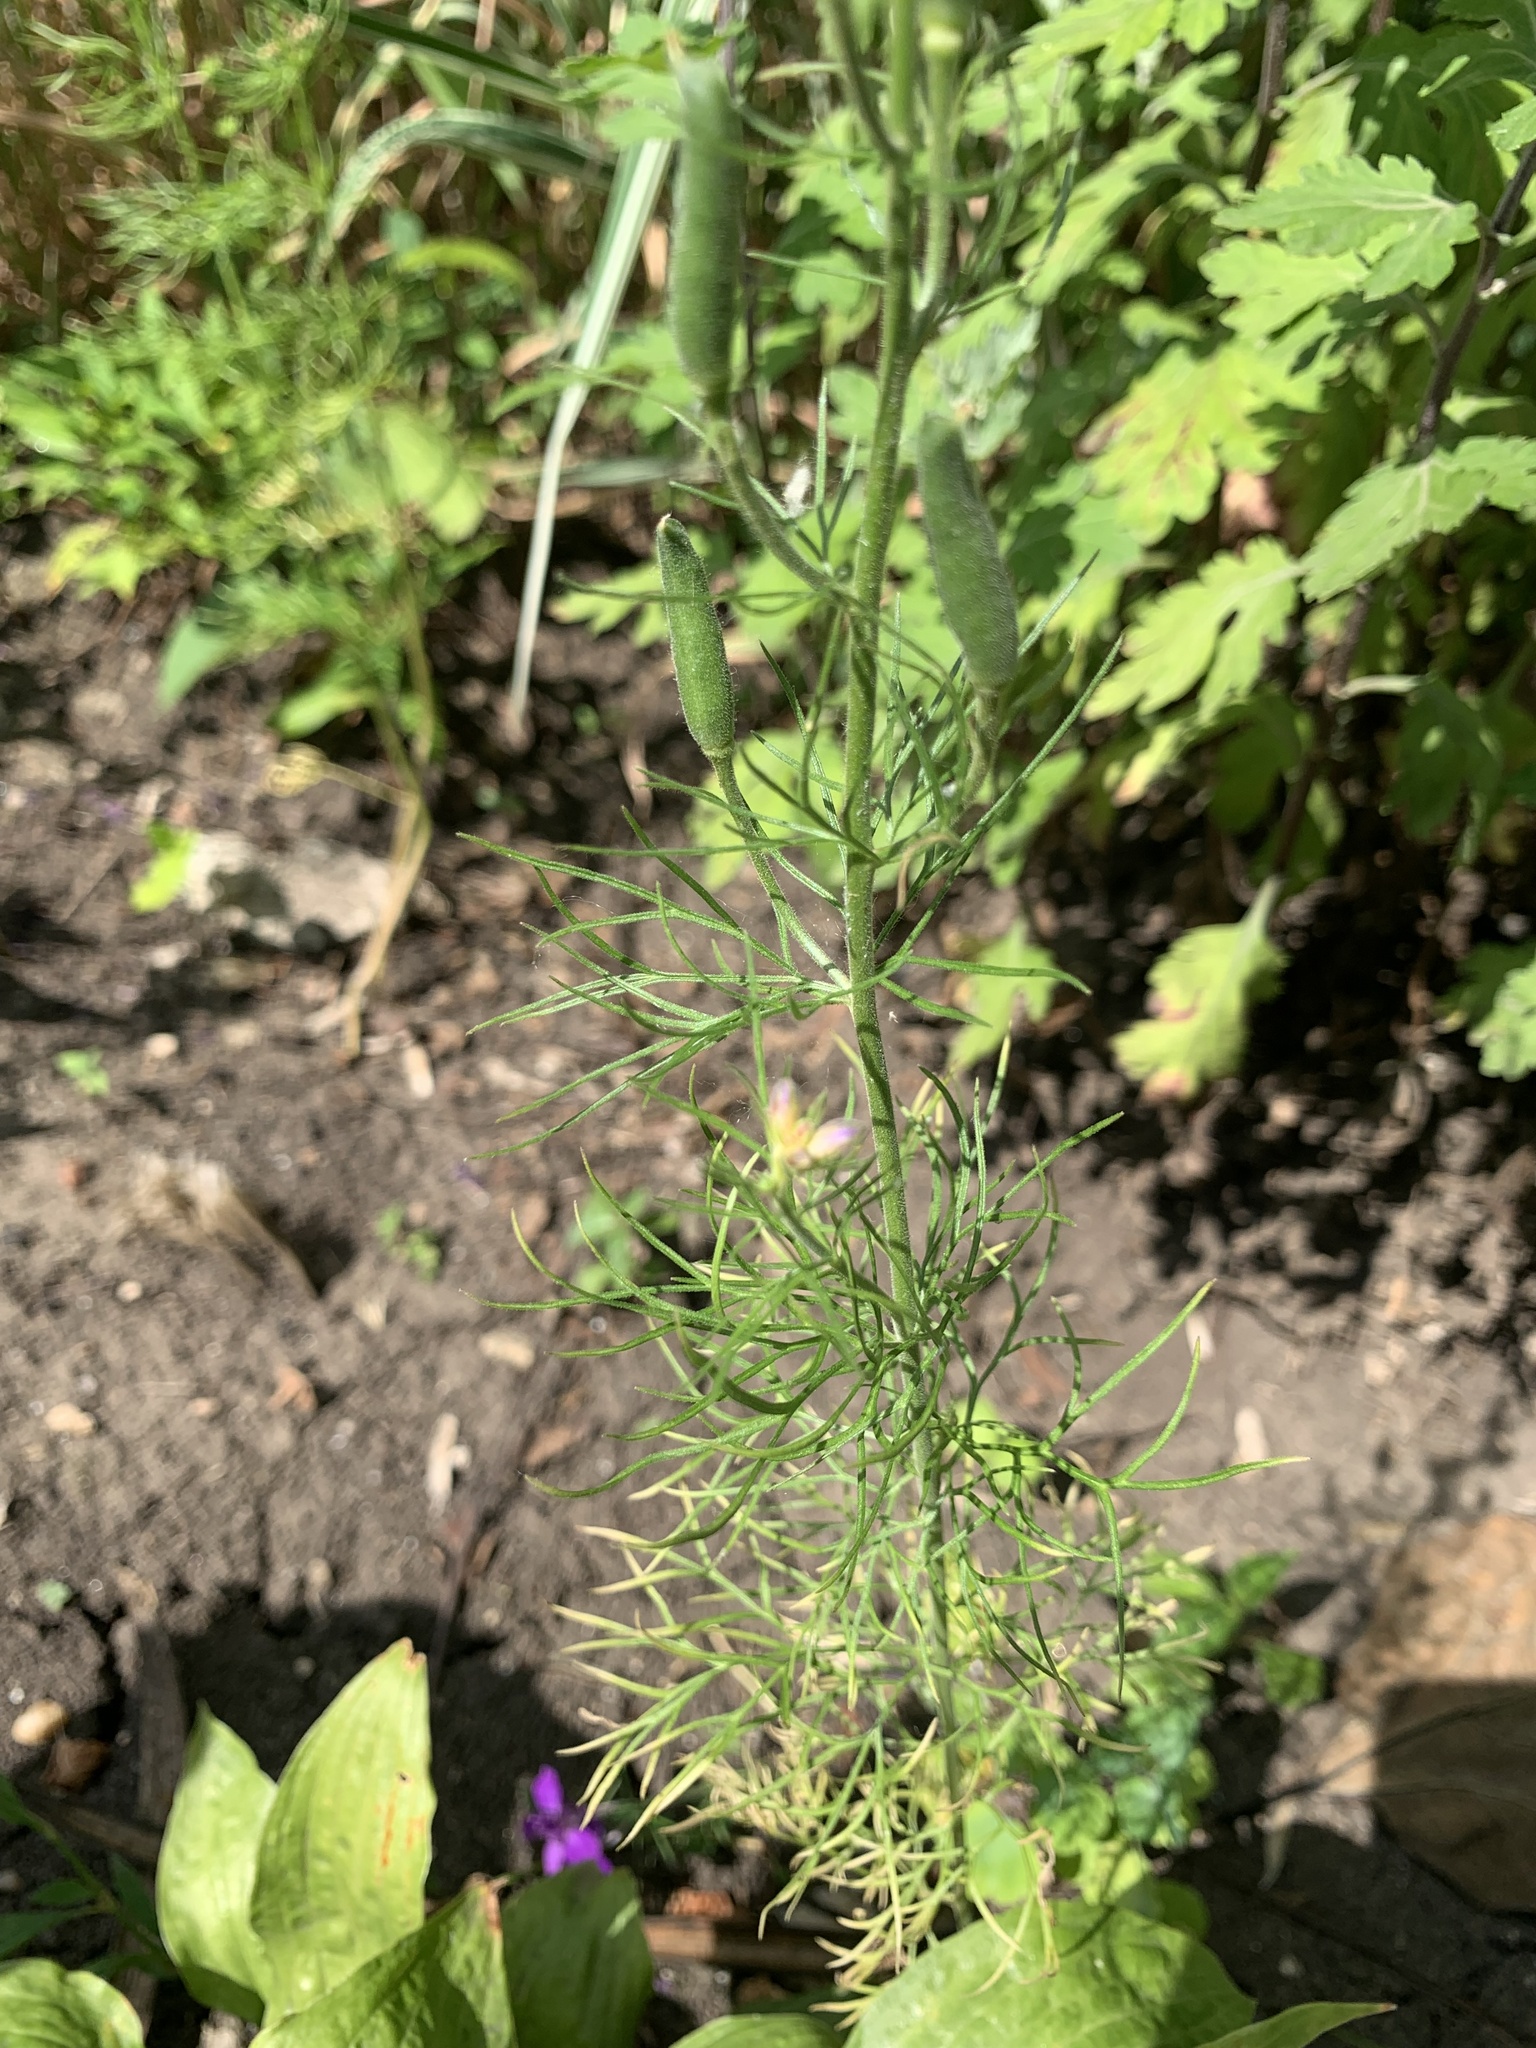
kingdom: Plantae
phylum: Tracheophyta
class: Magnoliopsida
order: Ranunculales
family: Ranunculaceae
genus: Delphinium
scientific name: Delphinium consolida
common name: Branching larkspur
